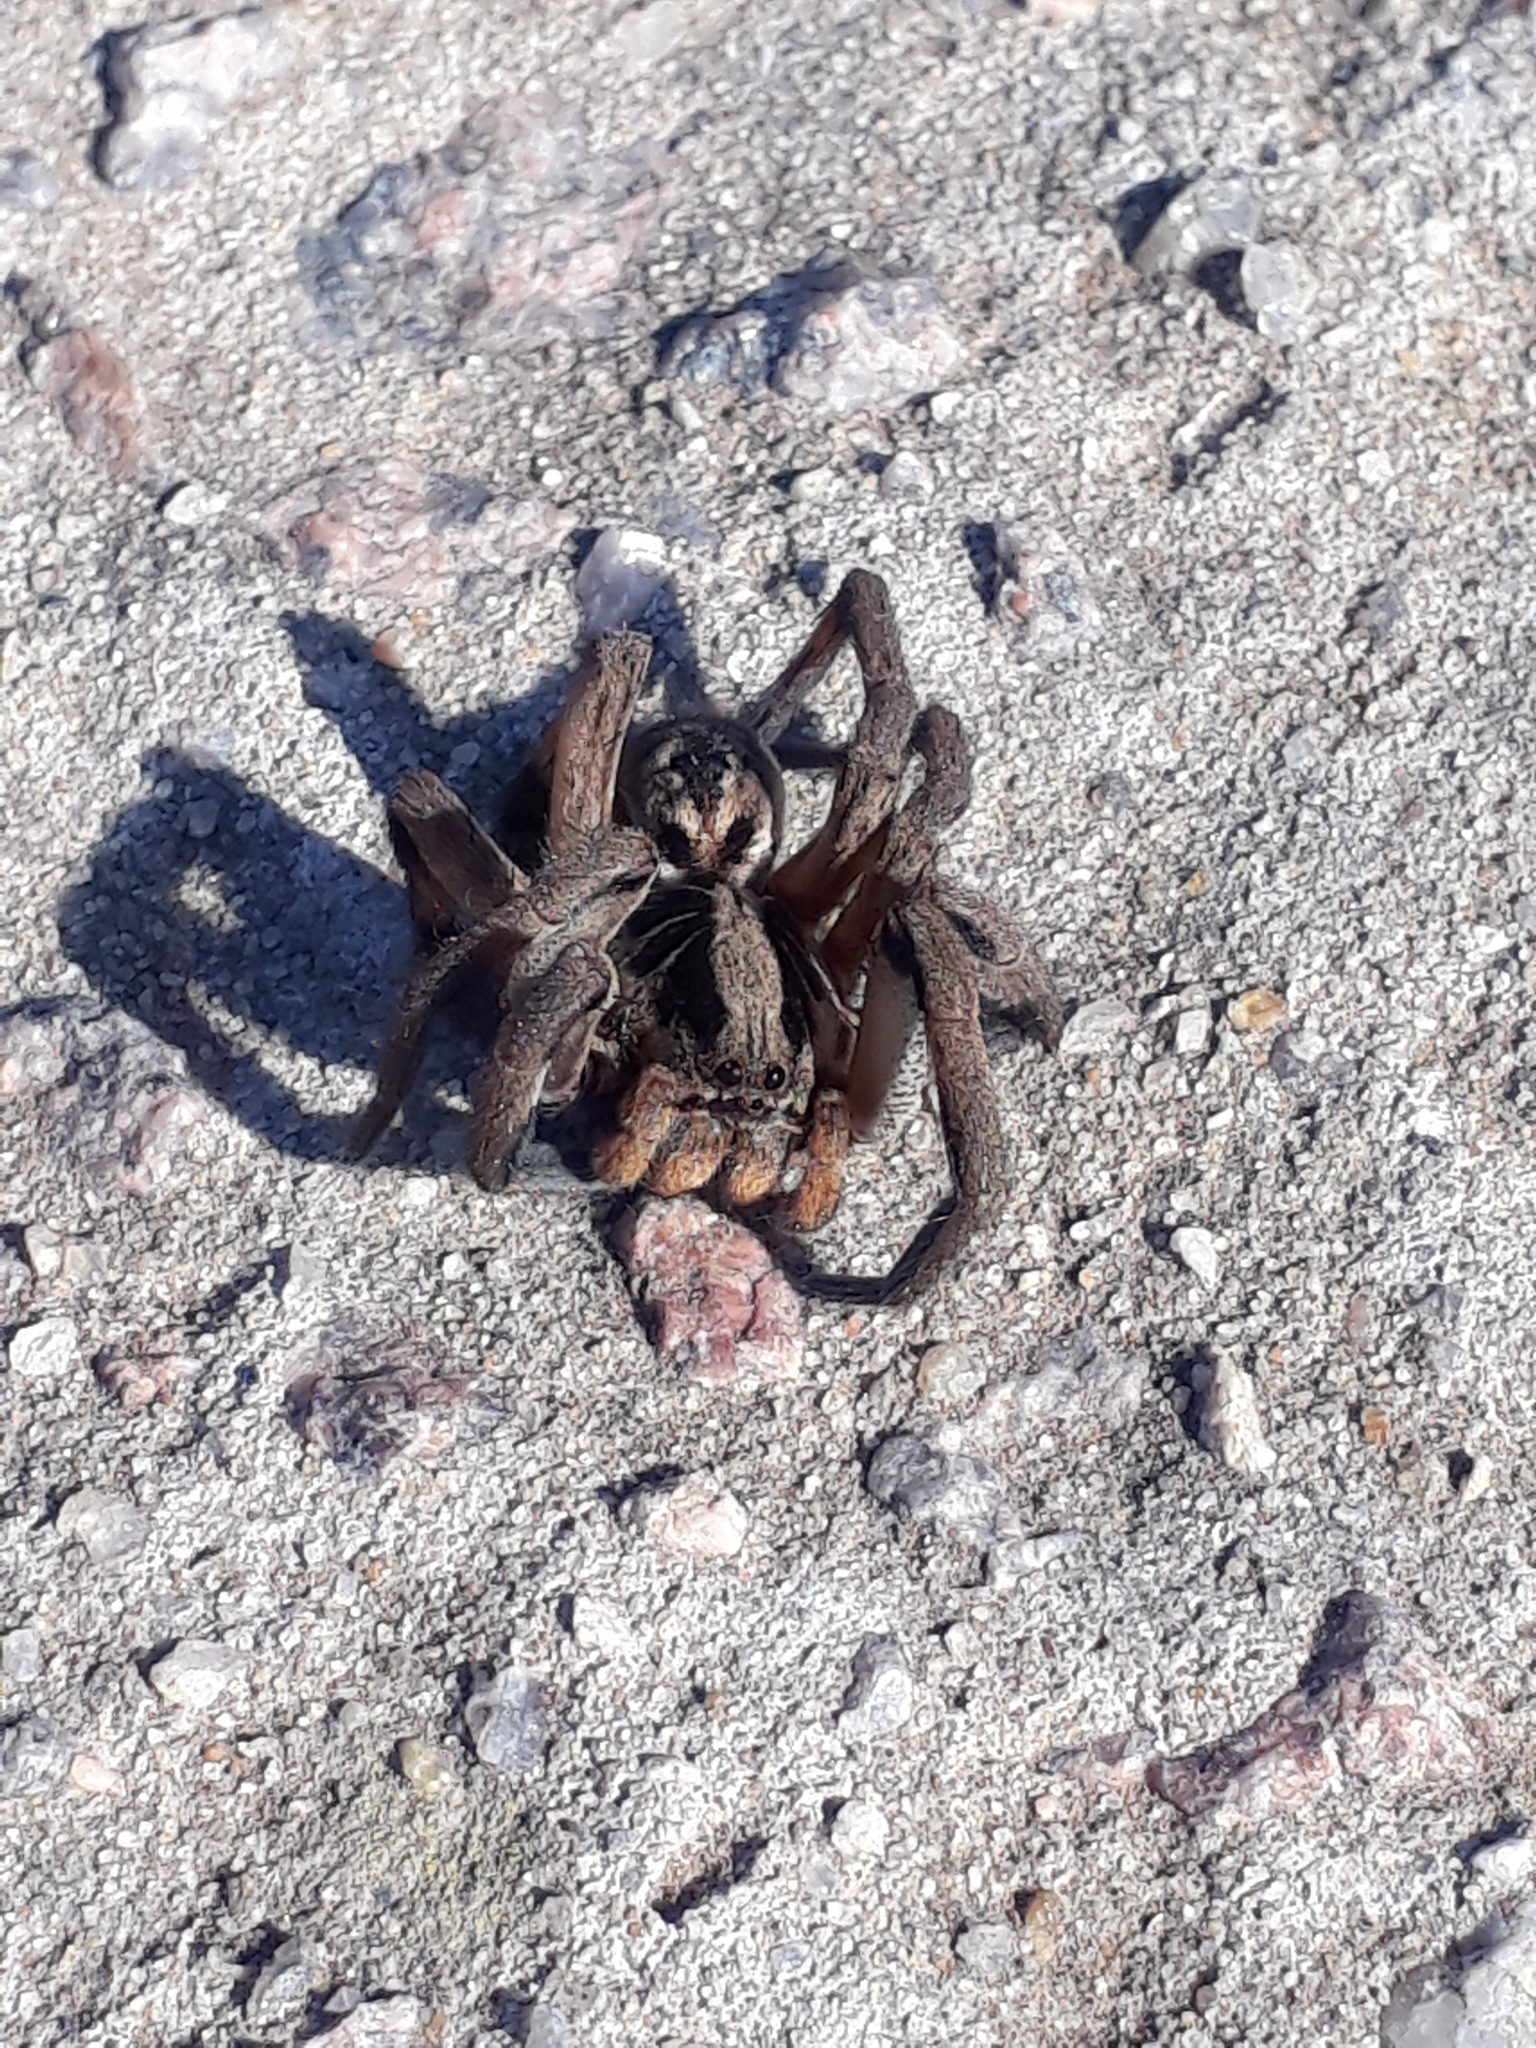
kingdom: Animalia
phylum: Arthropoda
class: Arachnida
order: Araneae
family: Lycosidae
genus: Lycosa
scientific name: Lycosa erythrognatha
